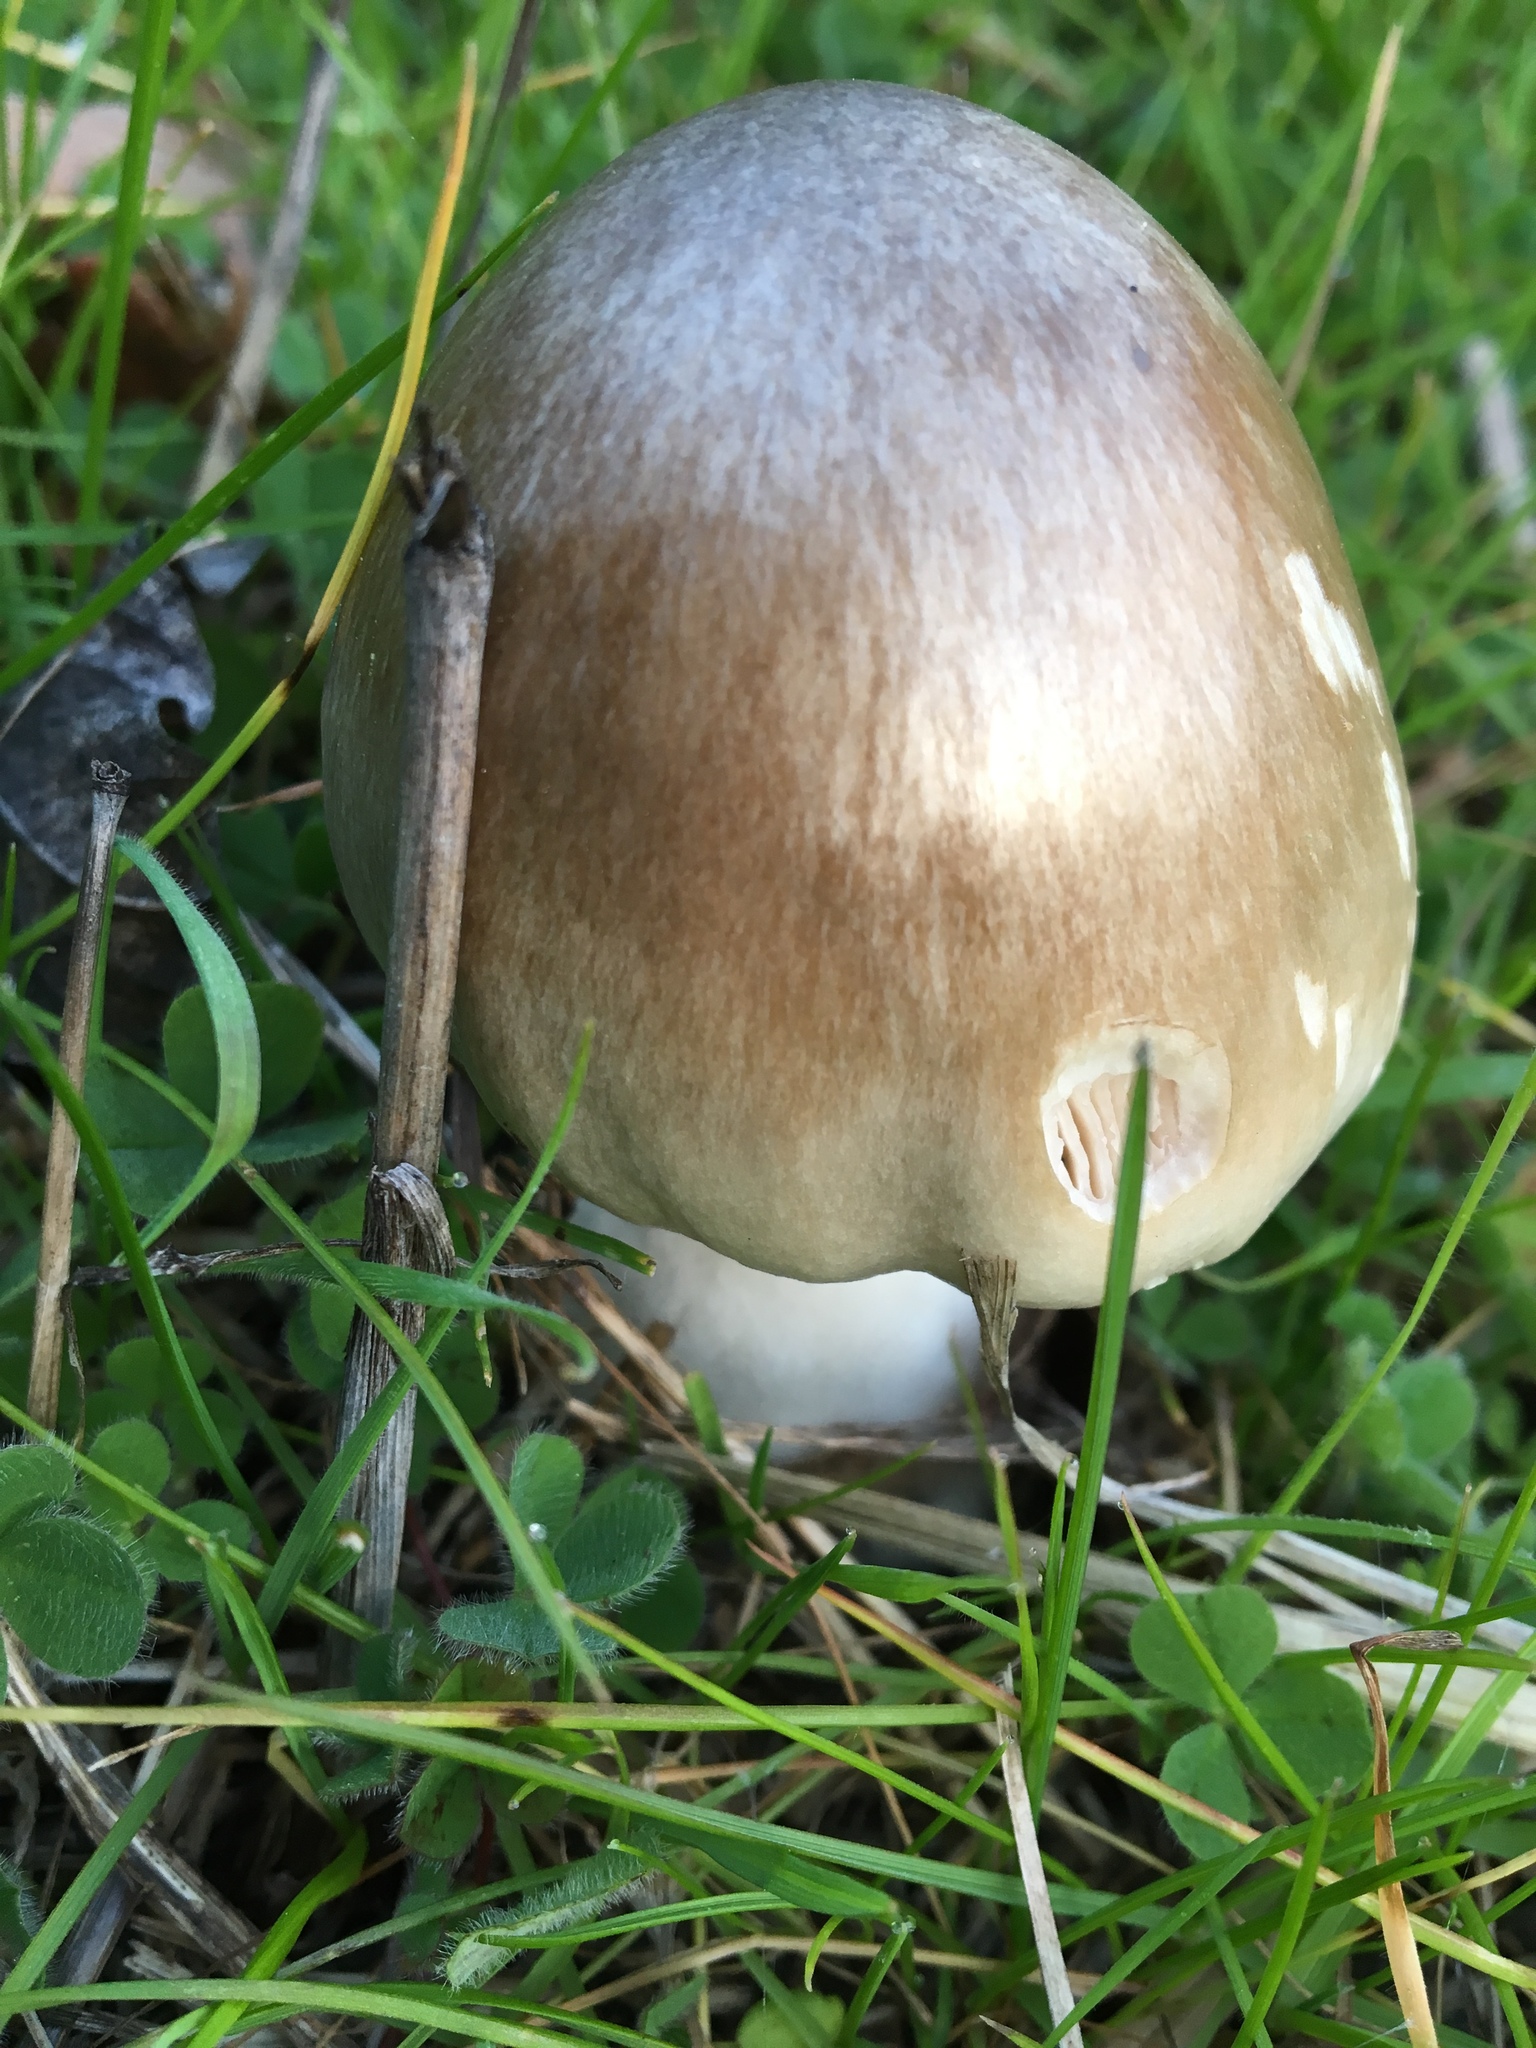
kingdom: Fungi
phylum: Basidiomycota
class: Agaricomycetes
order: Agaricales
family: Pluteaceae
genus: Volvopluteus
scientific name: Volvopluteus gloiocephalus
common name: Stubble rosegill
